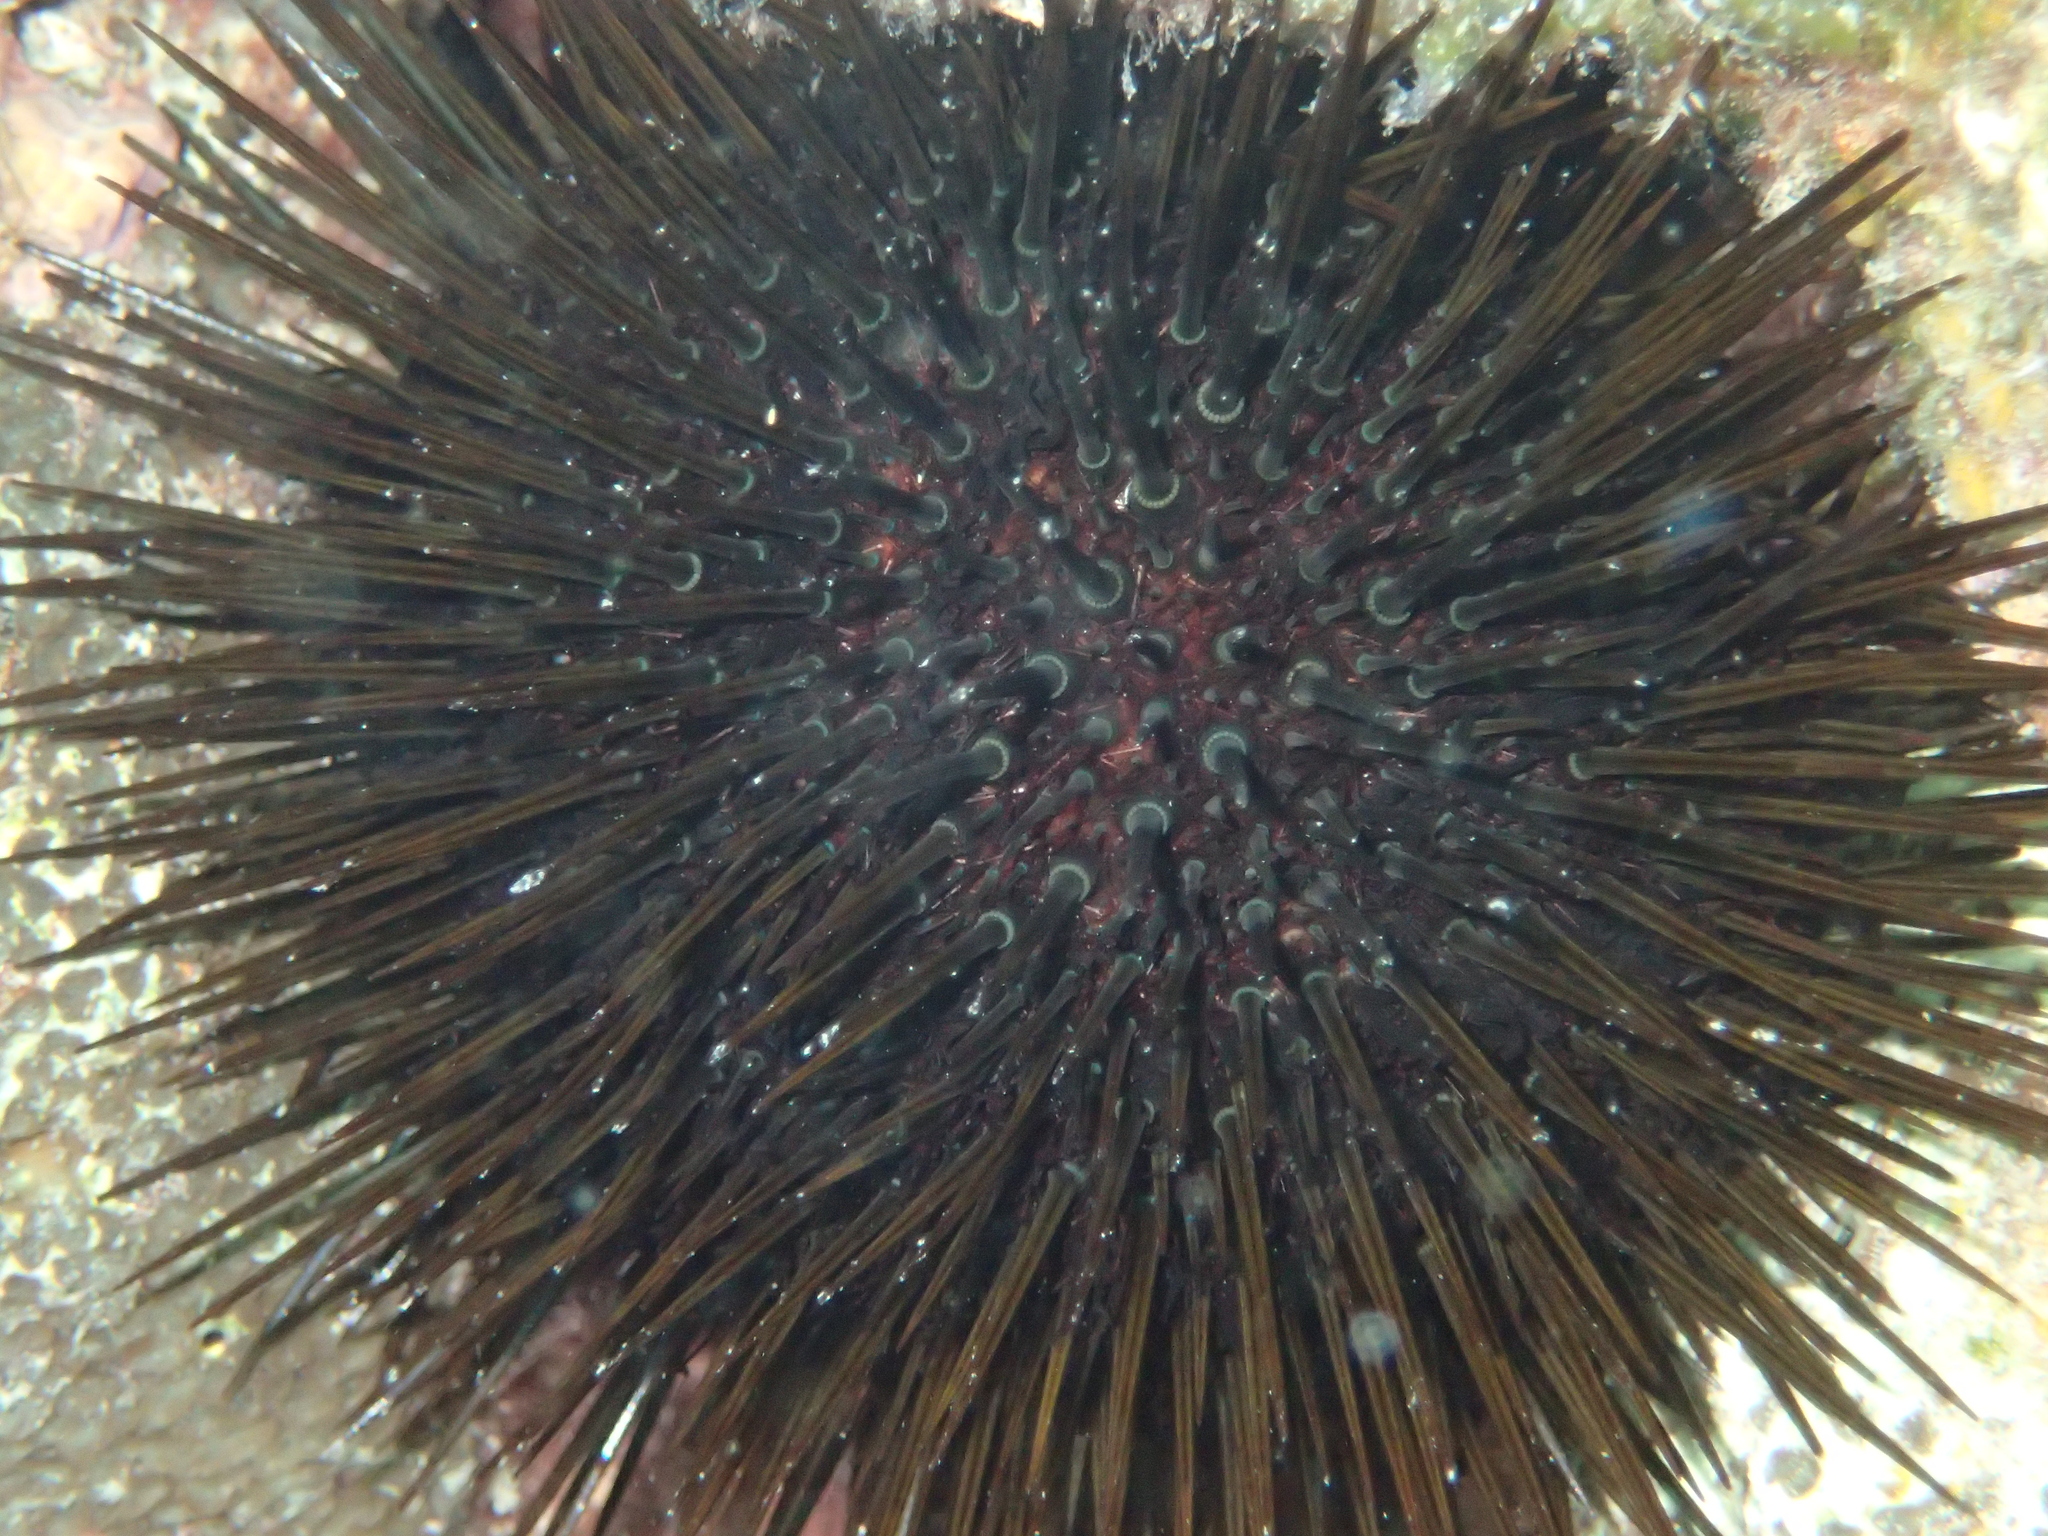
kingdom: Animalia
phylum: Echinodermata
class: Echinoidea
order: Camarodonta
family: Parechinidae
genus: Paracentrotus
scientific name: Paracentrotus lividus
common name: Purple sea urchin
